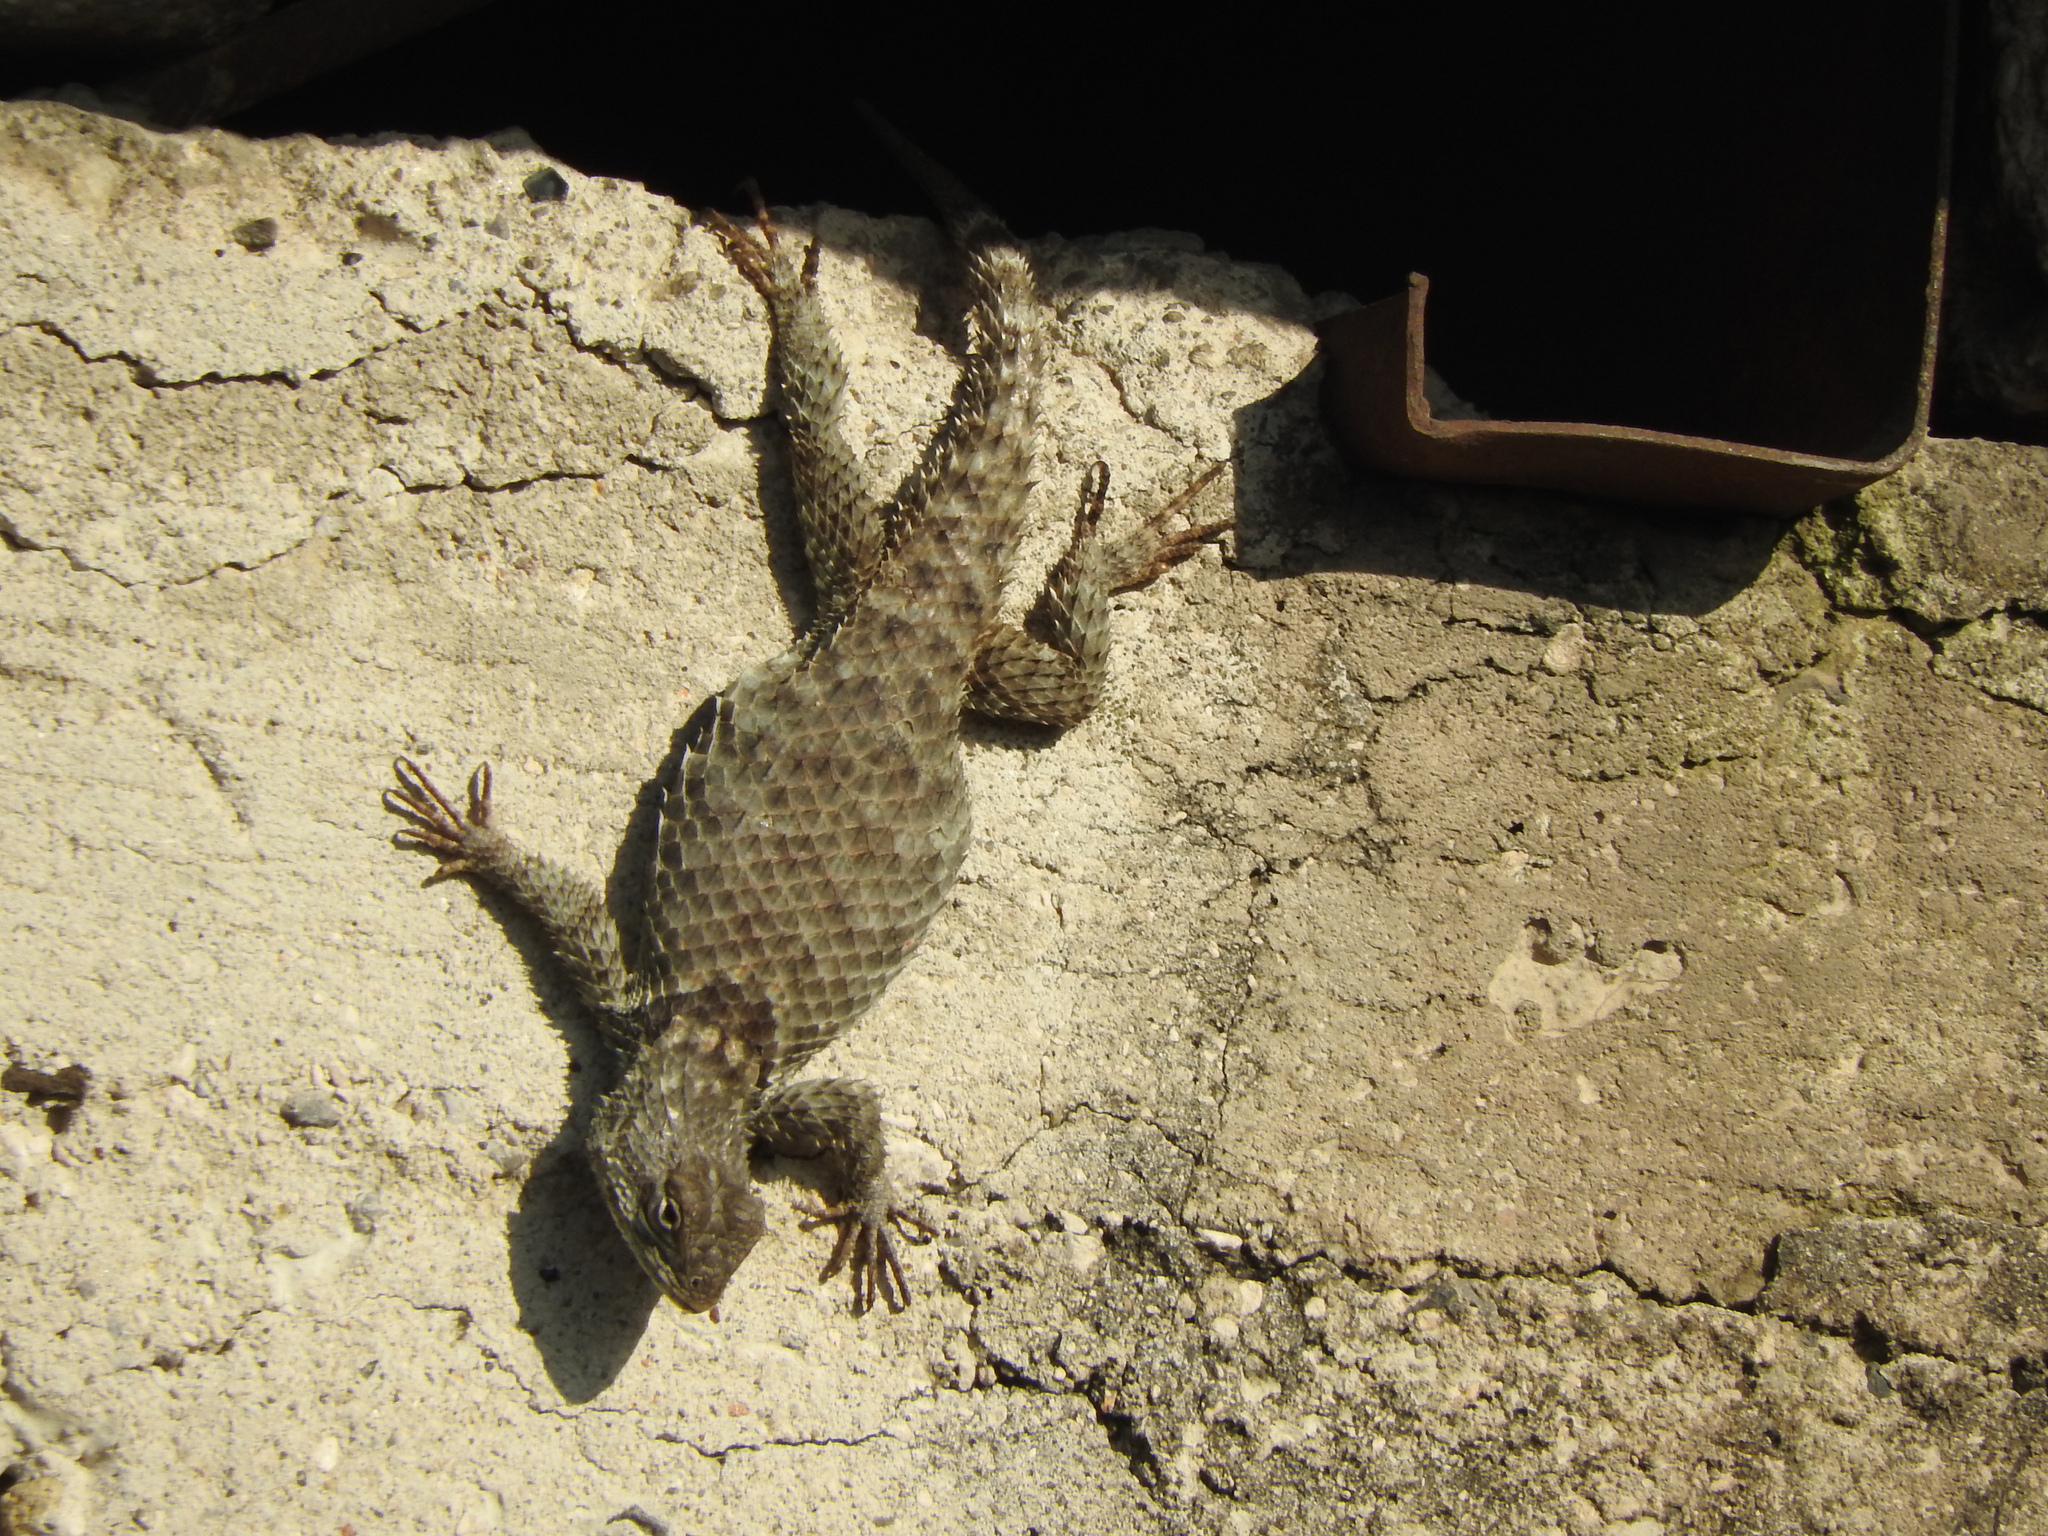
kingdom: Animalia
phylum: Chordata
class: Squamata
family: Phrynosomatidae
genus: Sceloporus
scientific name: Sceloporus torquatus
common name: Central plateau torquate lizard [melanogaster]
